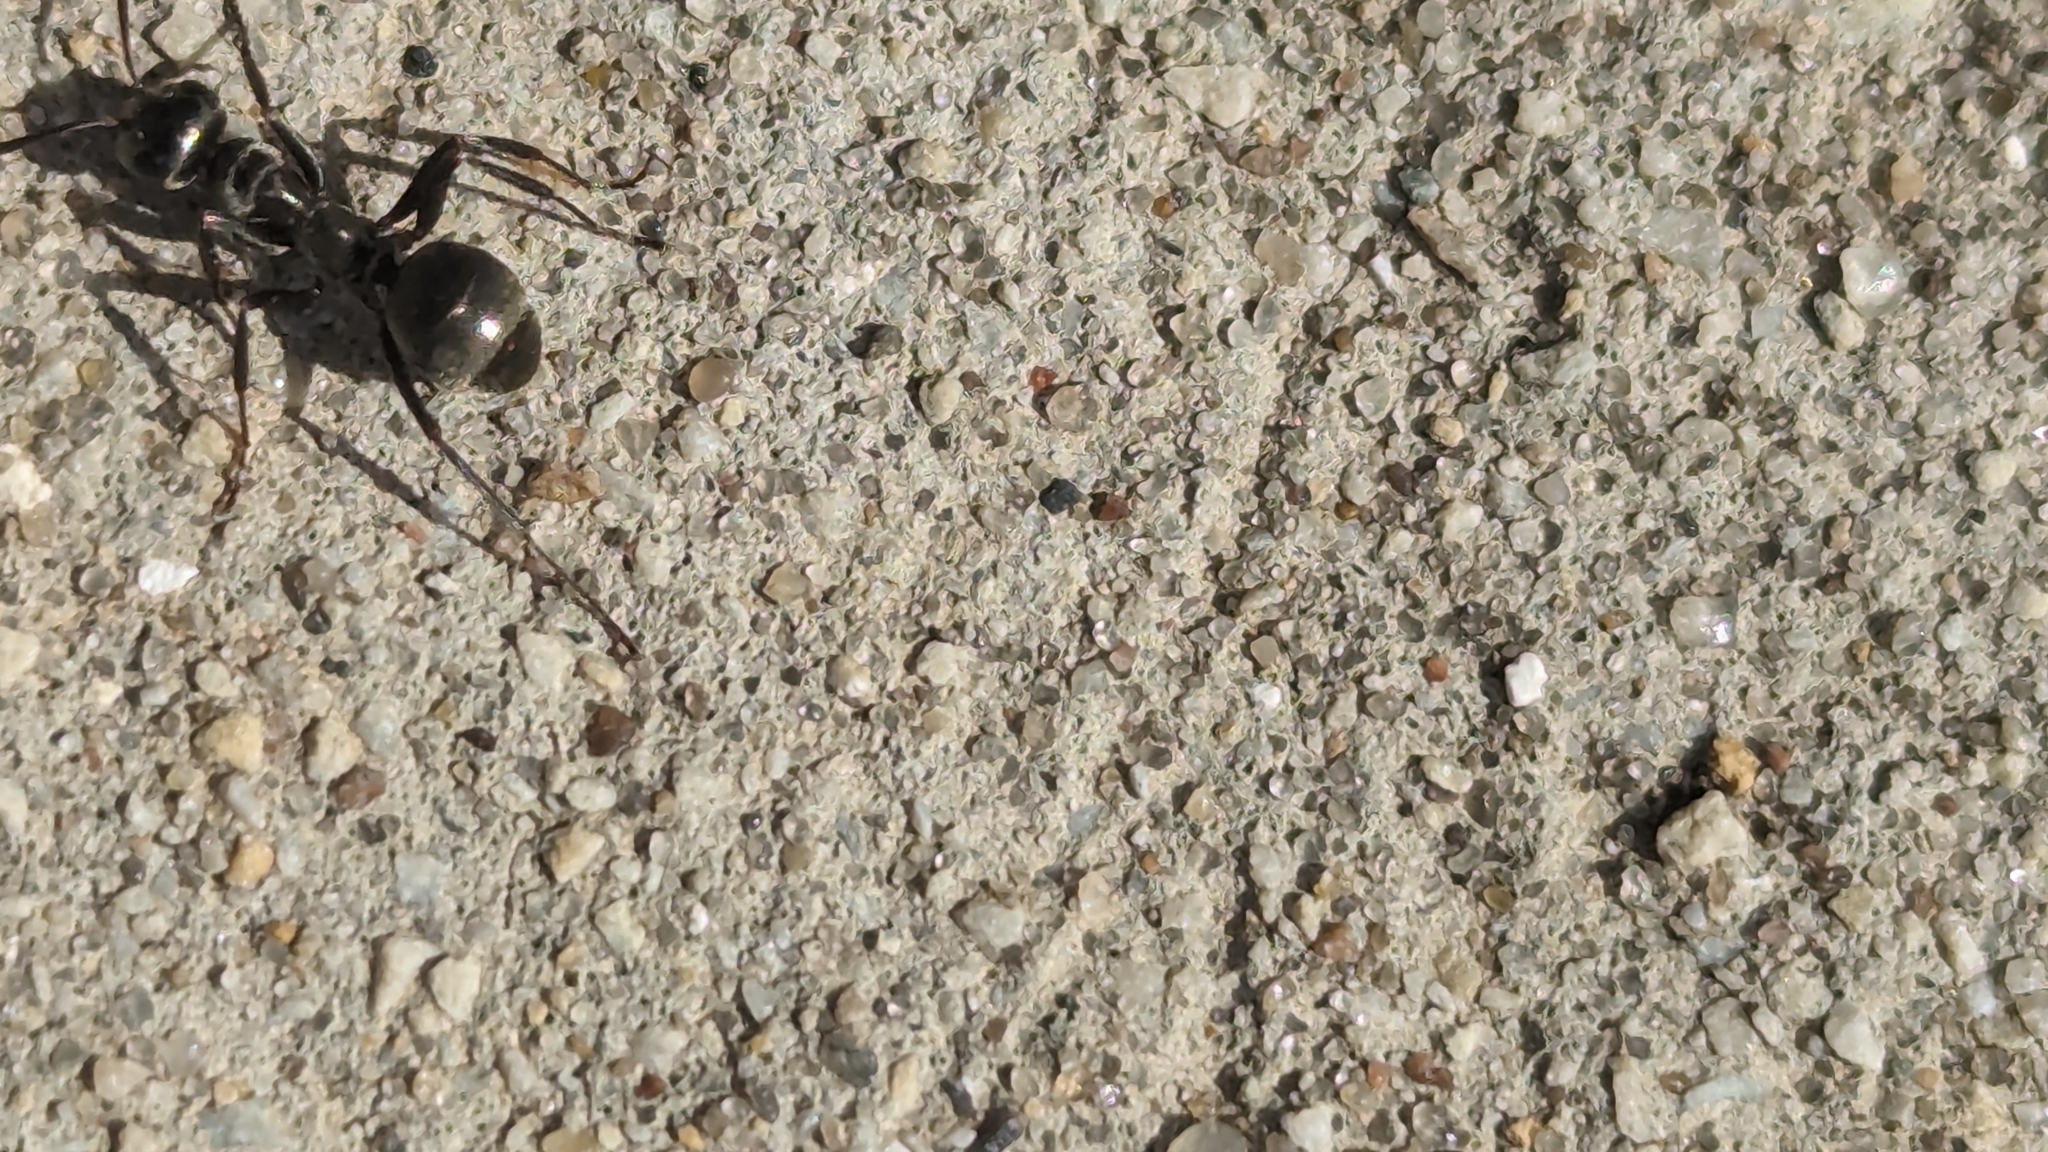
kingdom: Animalia
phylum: Arthropoda
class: Insecta
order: Hymenoptera
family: Formicidae
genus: Formica
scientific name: Formica subsericea
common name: Silky field ant
